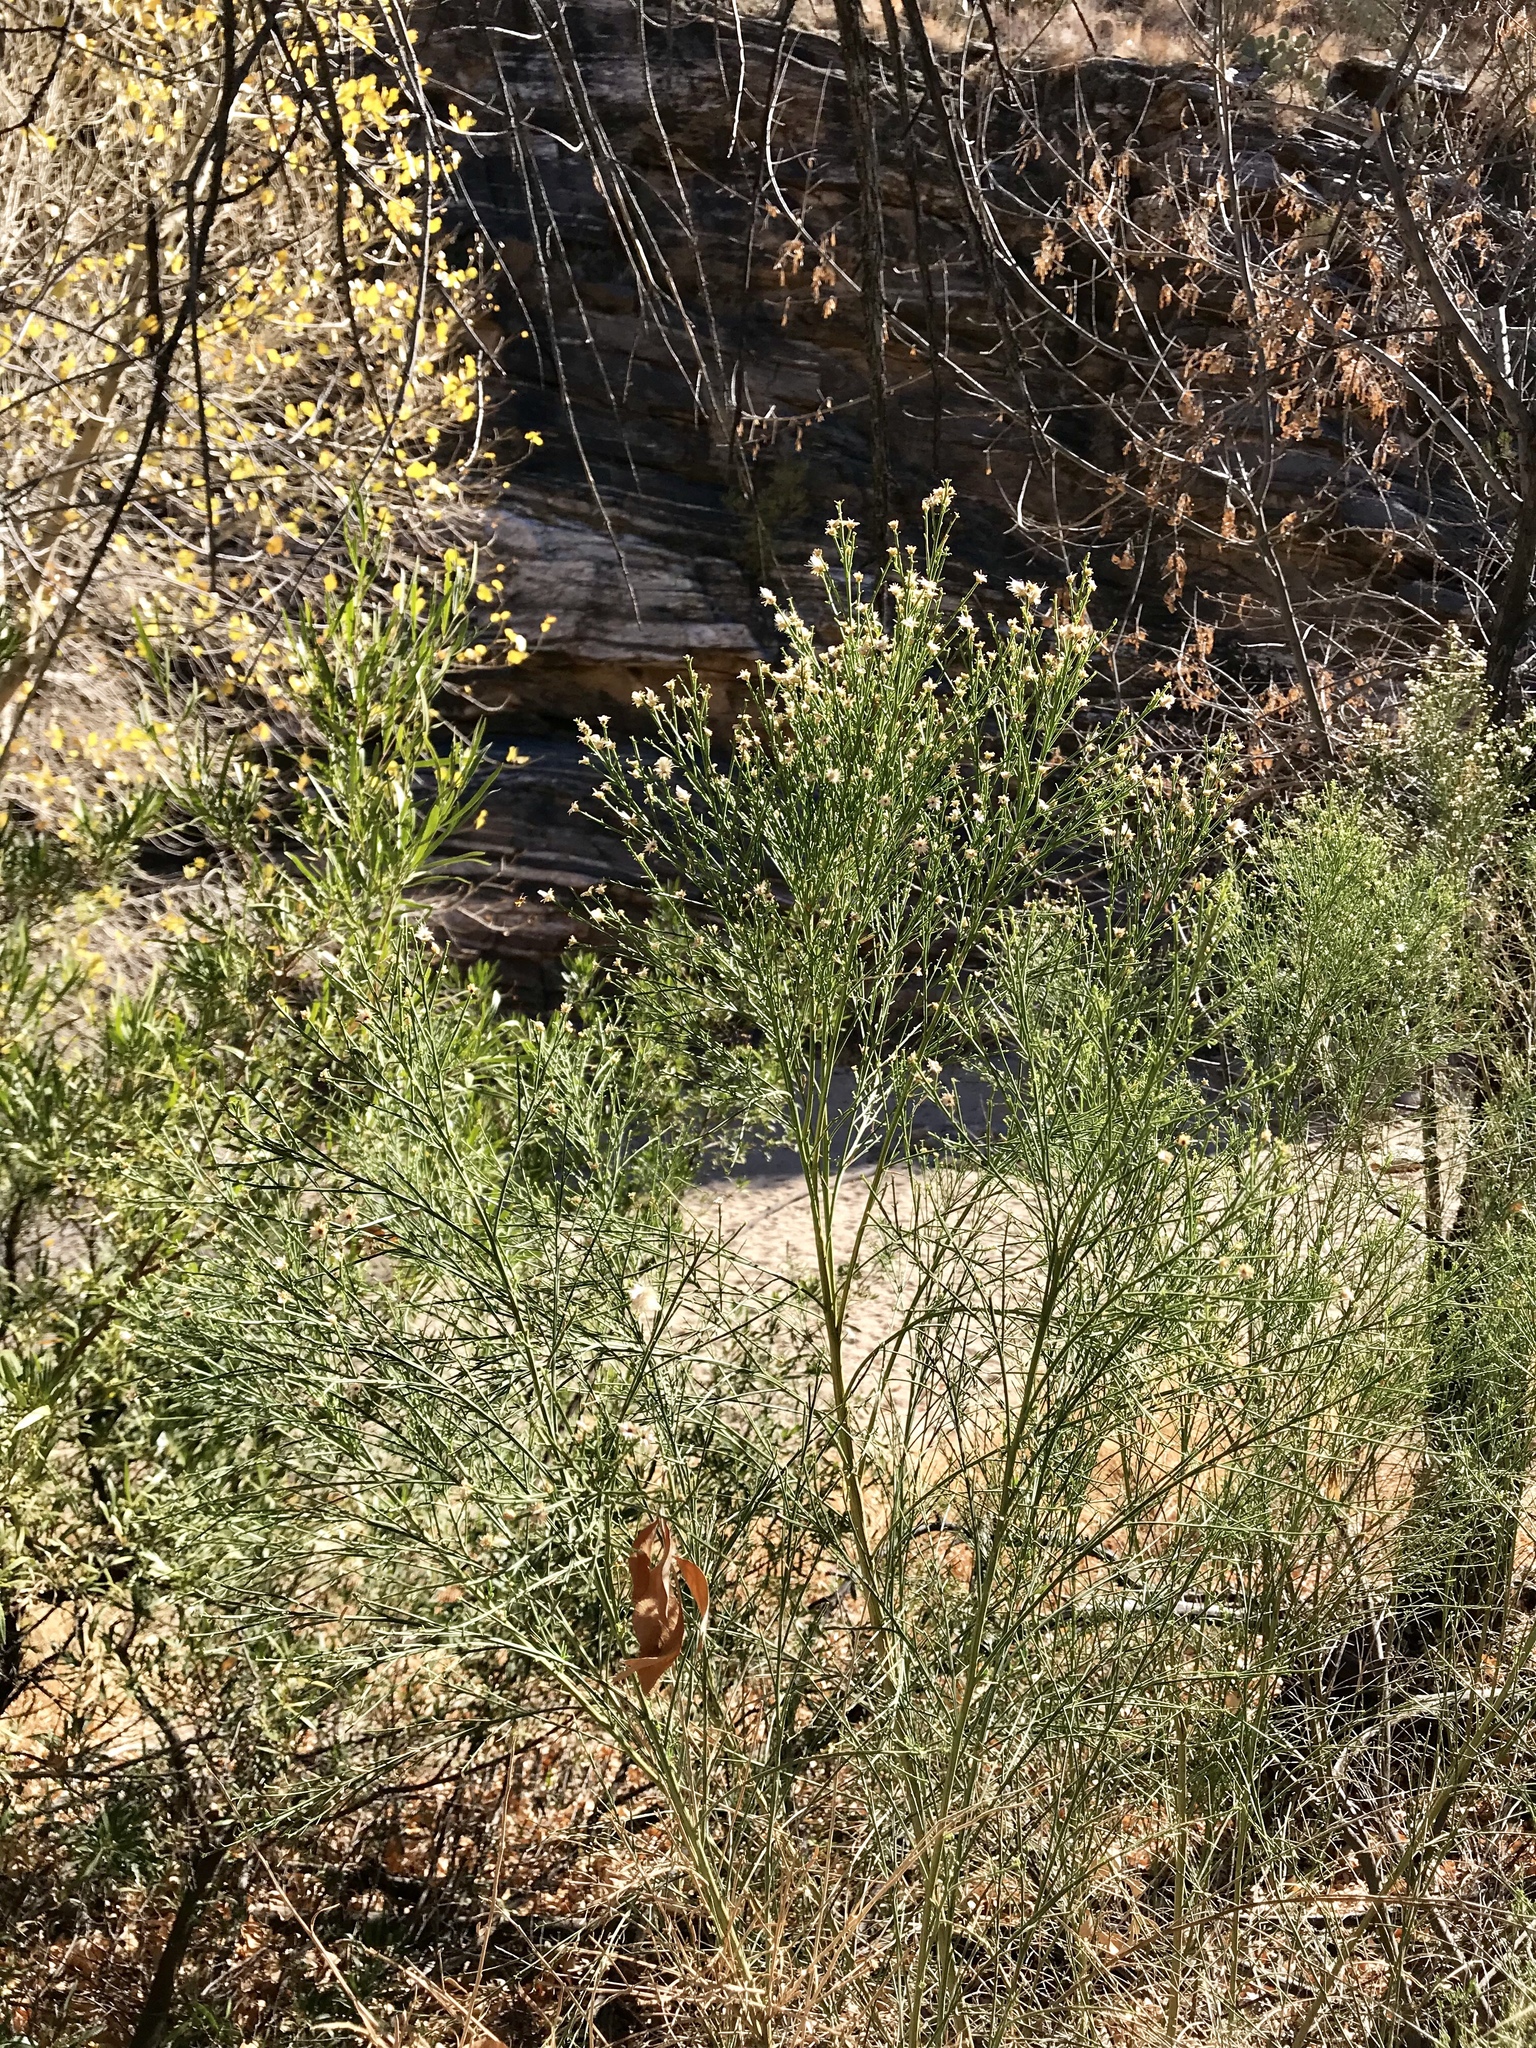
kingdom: Plantae
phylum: Tracheophyta
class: Magnoliopsida
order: Asterales
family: Asteraceae
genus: Baccharis
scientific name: Baccharis sarothroides
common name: Desert-broom
